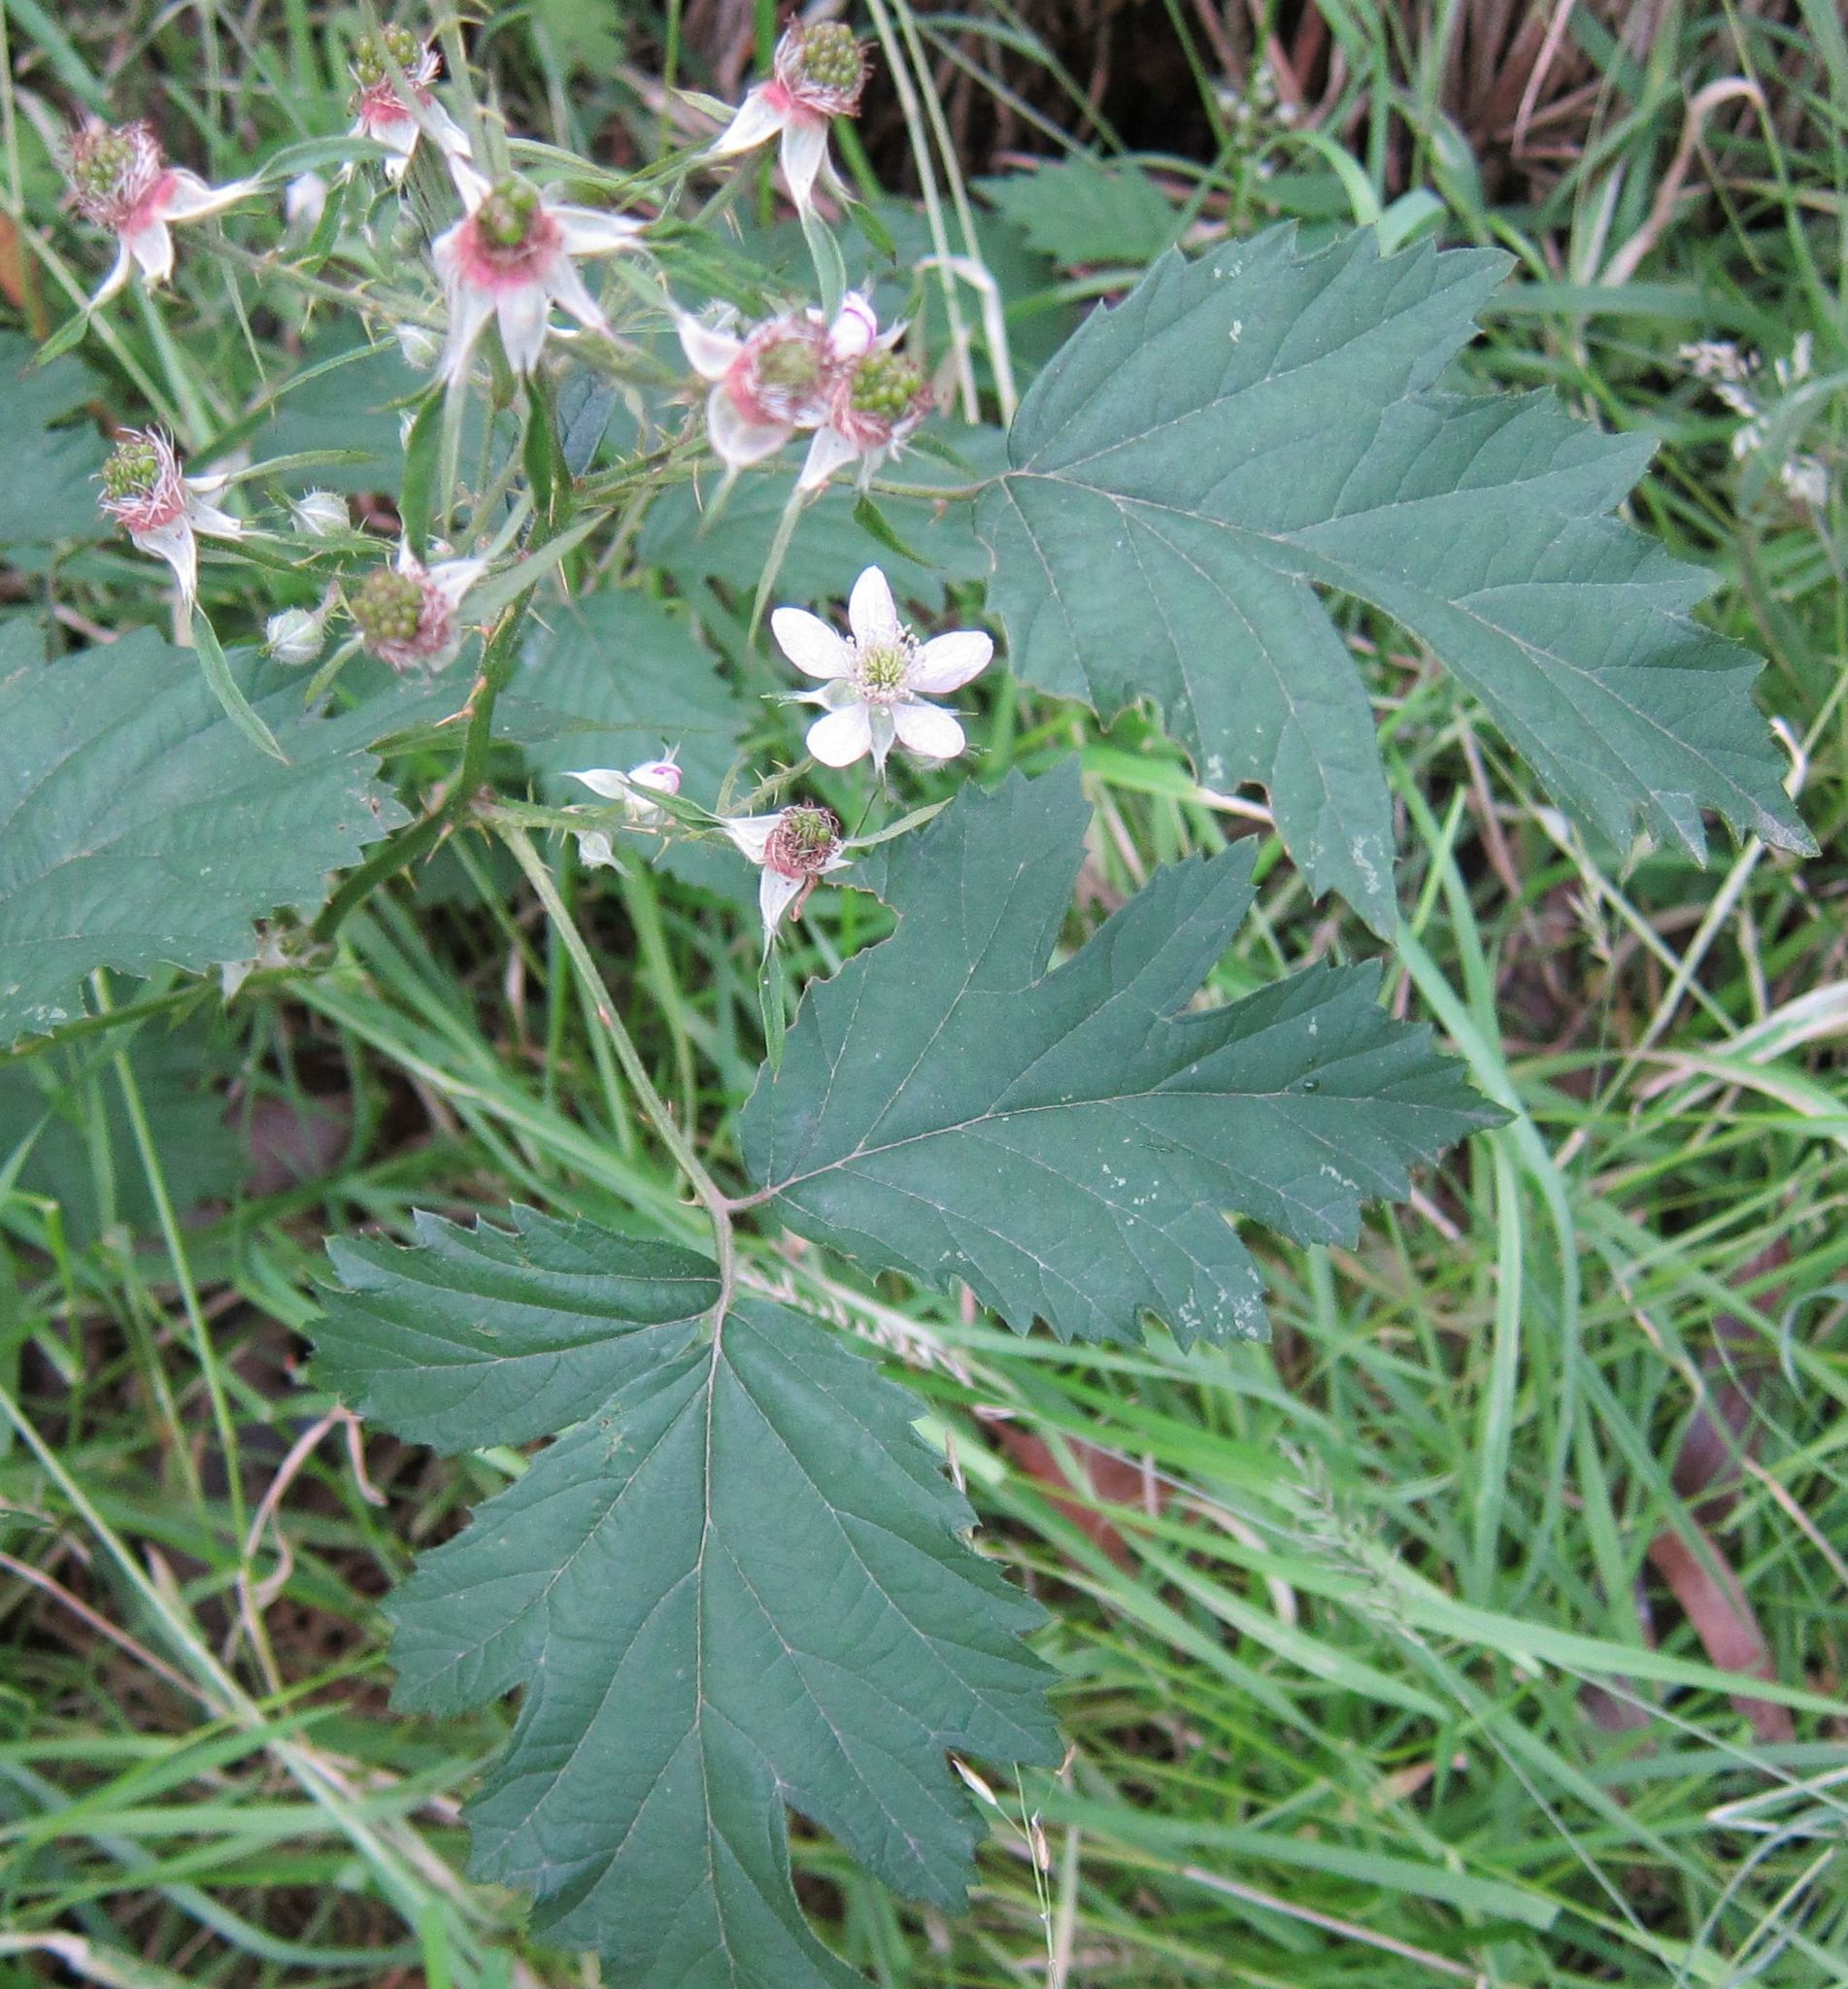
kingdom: Plantae
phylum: Tracheophyta
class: Magnoliopsida
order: Rosales
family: Rosaceae
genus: Rubus
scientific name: Rubus laciniatus
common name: Evergreen blackberry
